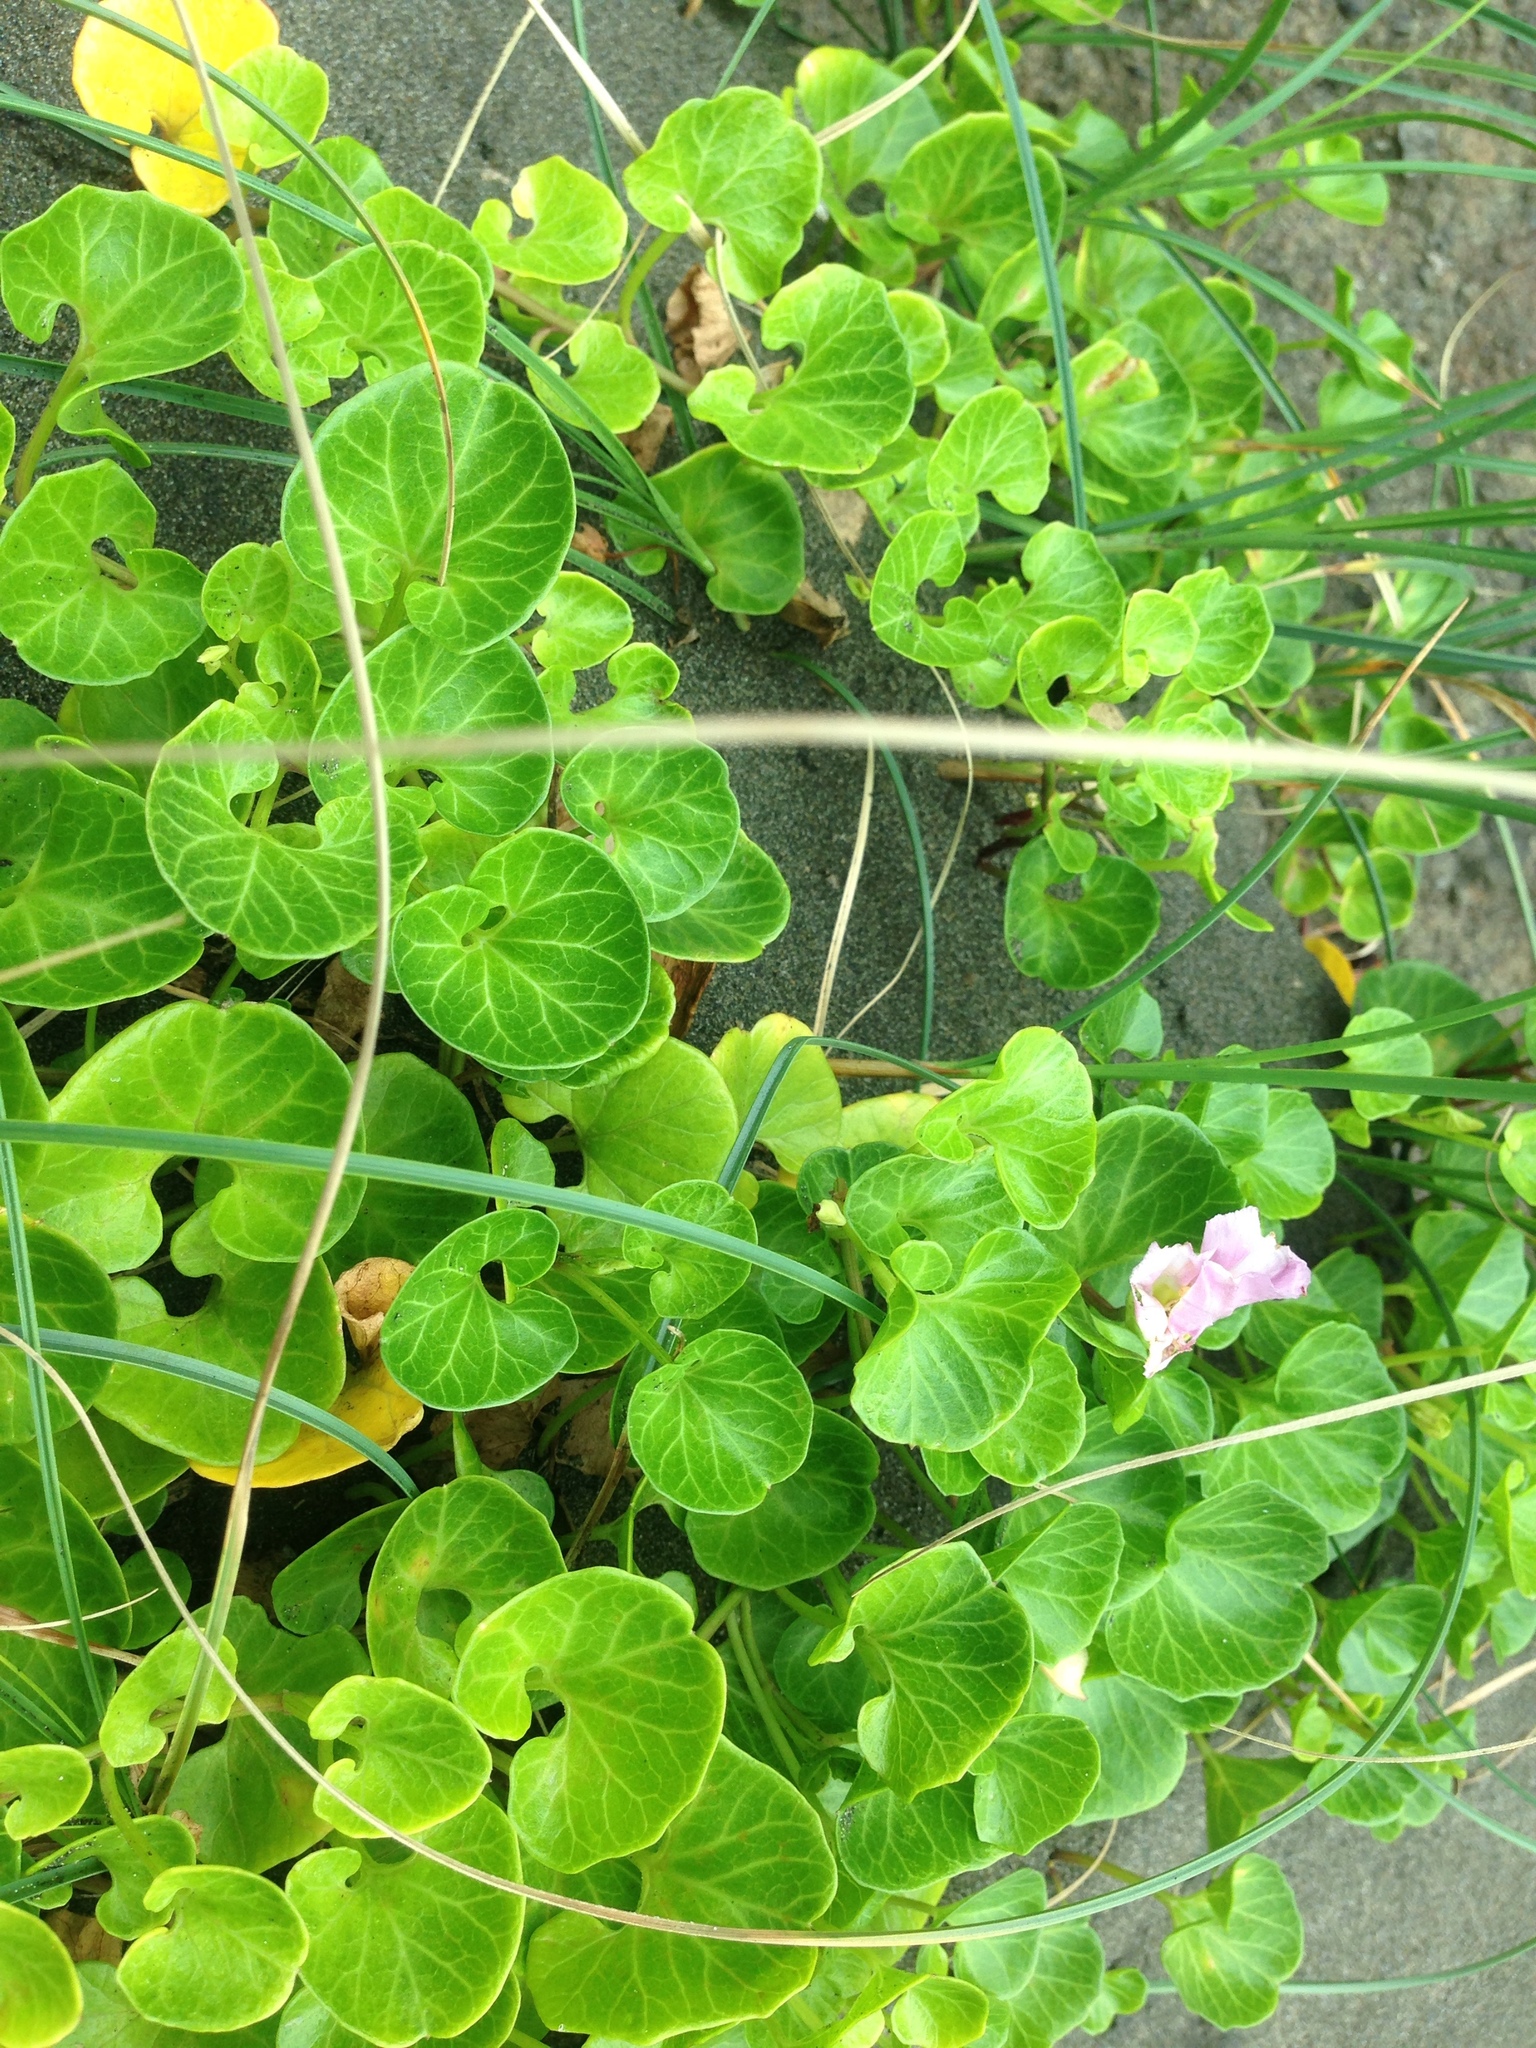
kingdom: Plantae
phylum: Tracheophyta
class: Magnoliopsida
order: Solanales
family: Convolvulaceae
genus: Calystegia
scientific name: Calystegia soldanella
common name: Sea bindweed
